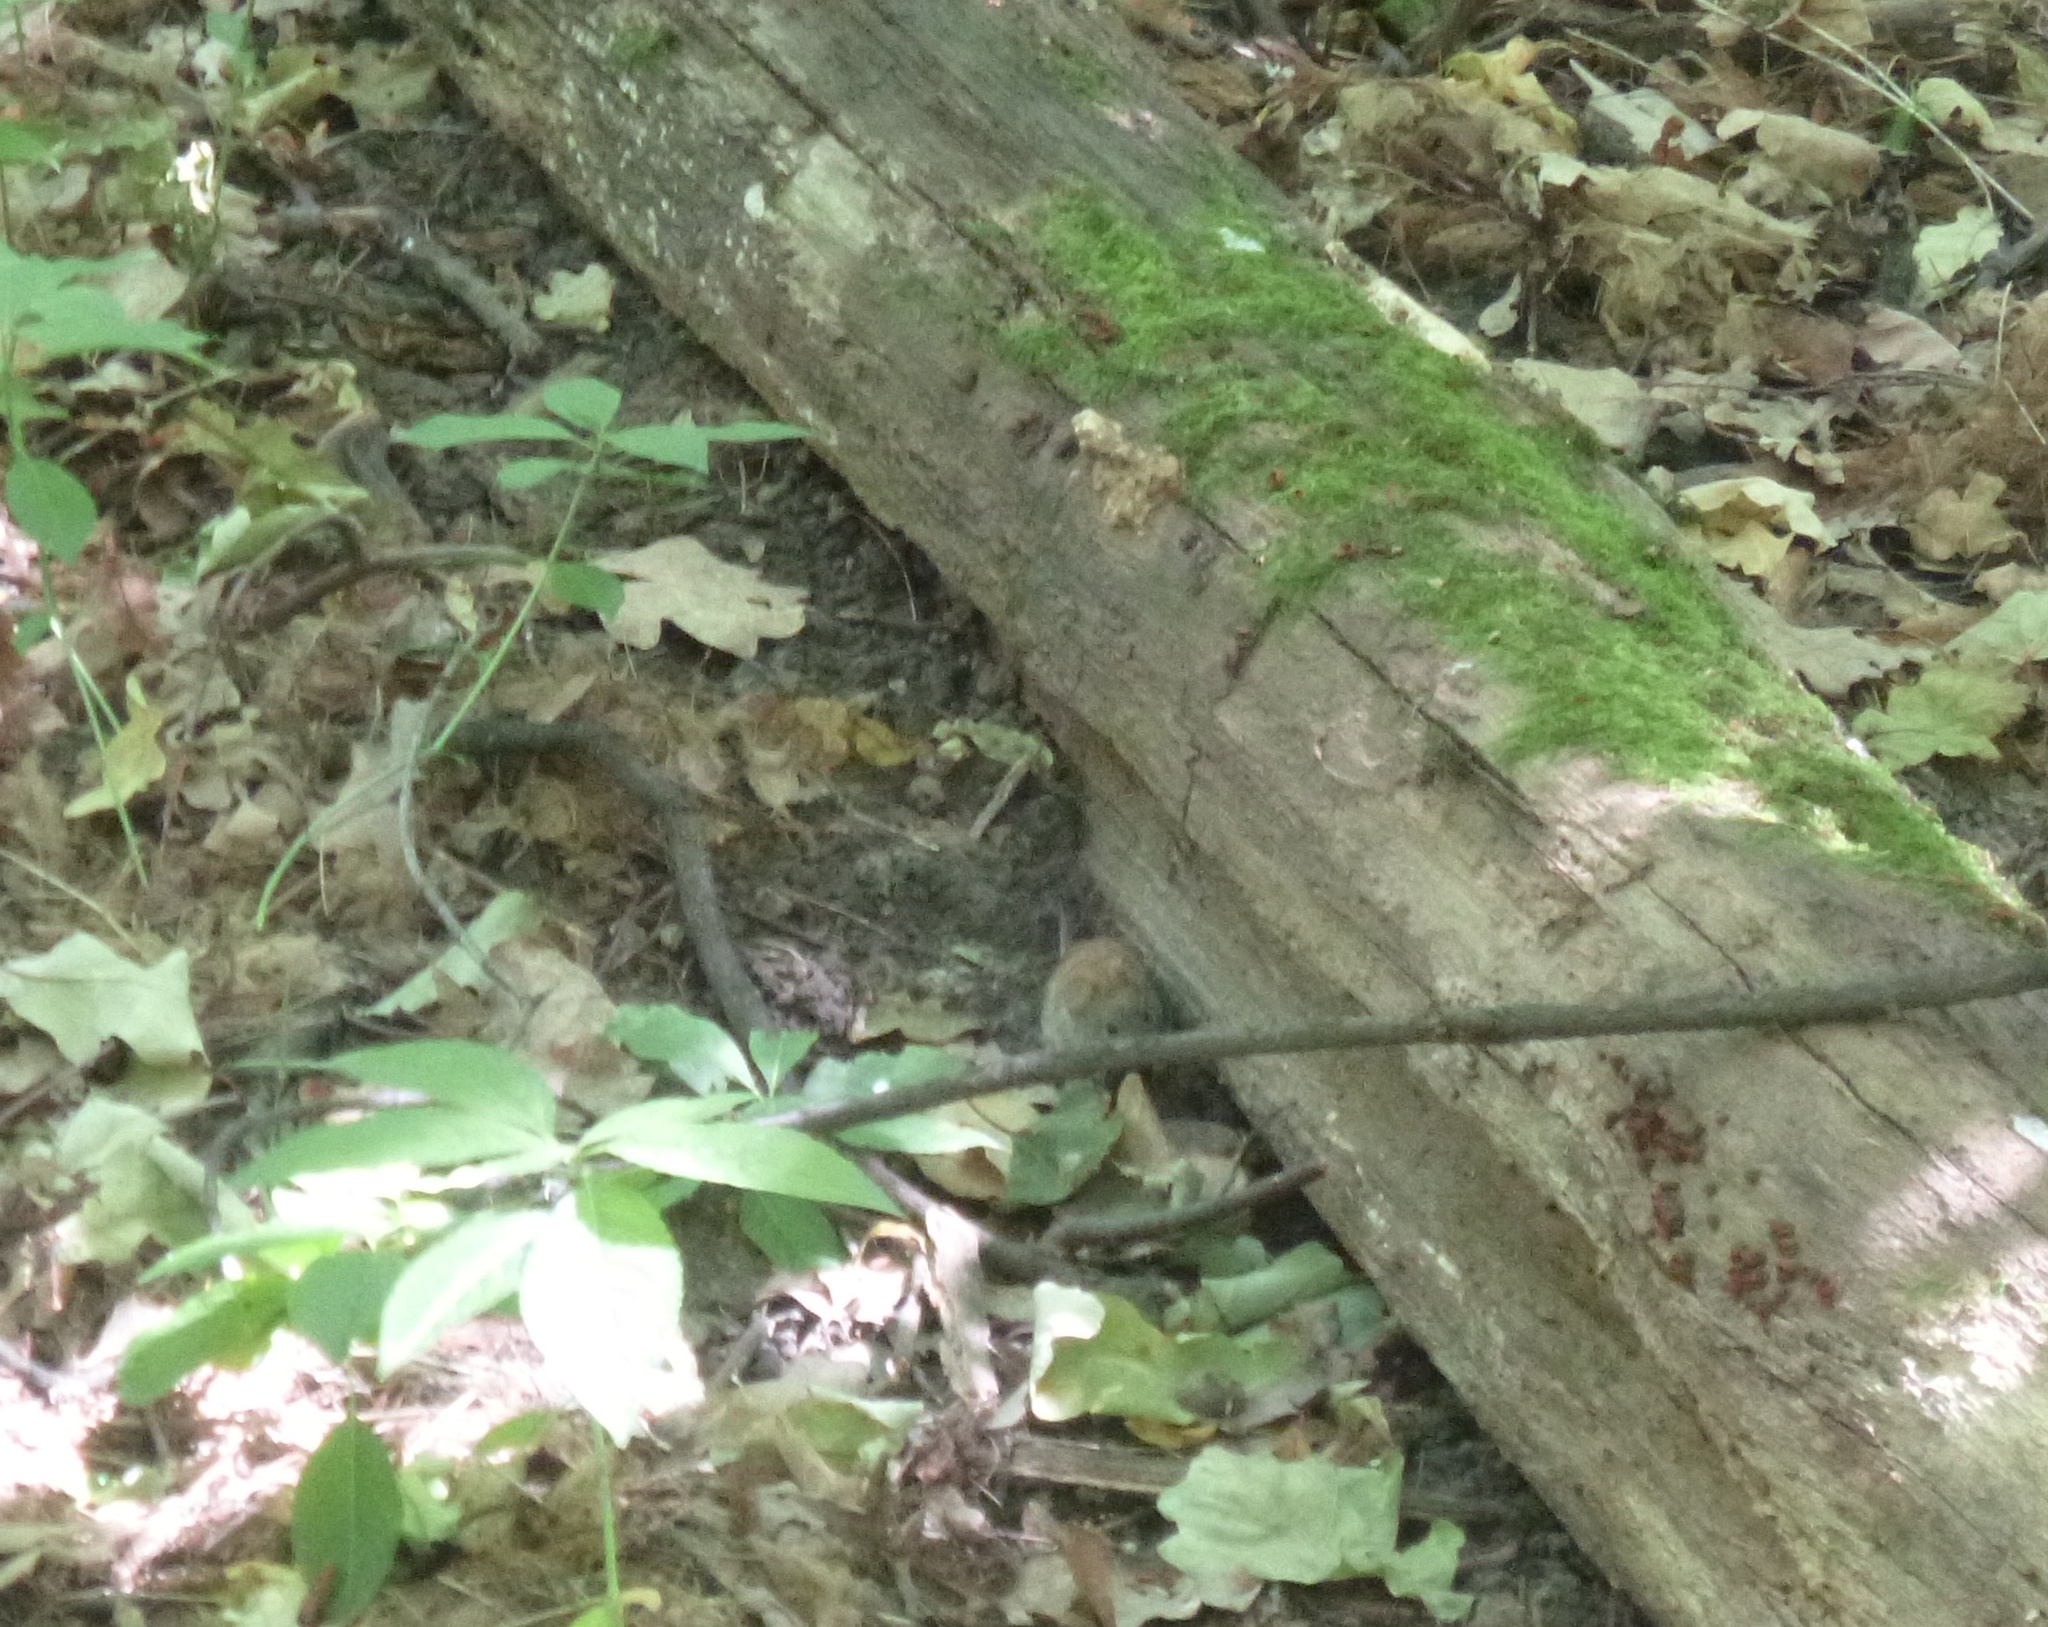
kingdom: Animalia
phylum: Chordata
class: Mammalia
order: Rodentia
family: Cricetidae
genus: Myodes
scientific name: Myodes glareolus
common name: Bank vole
